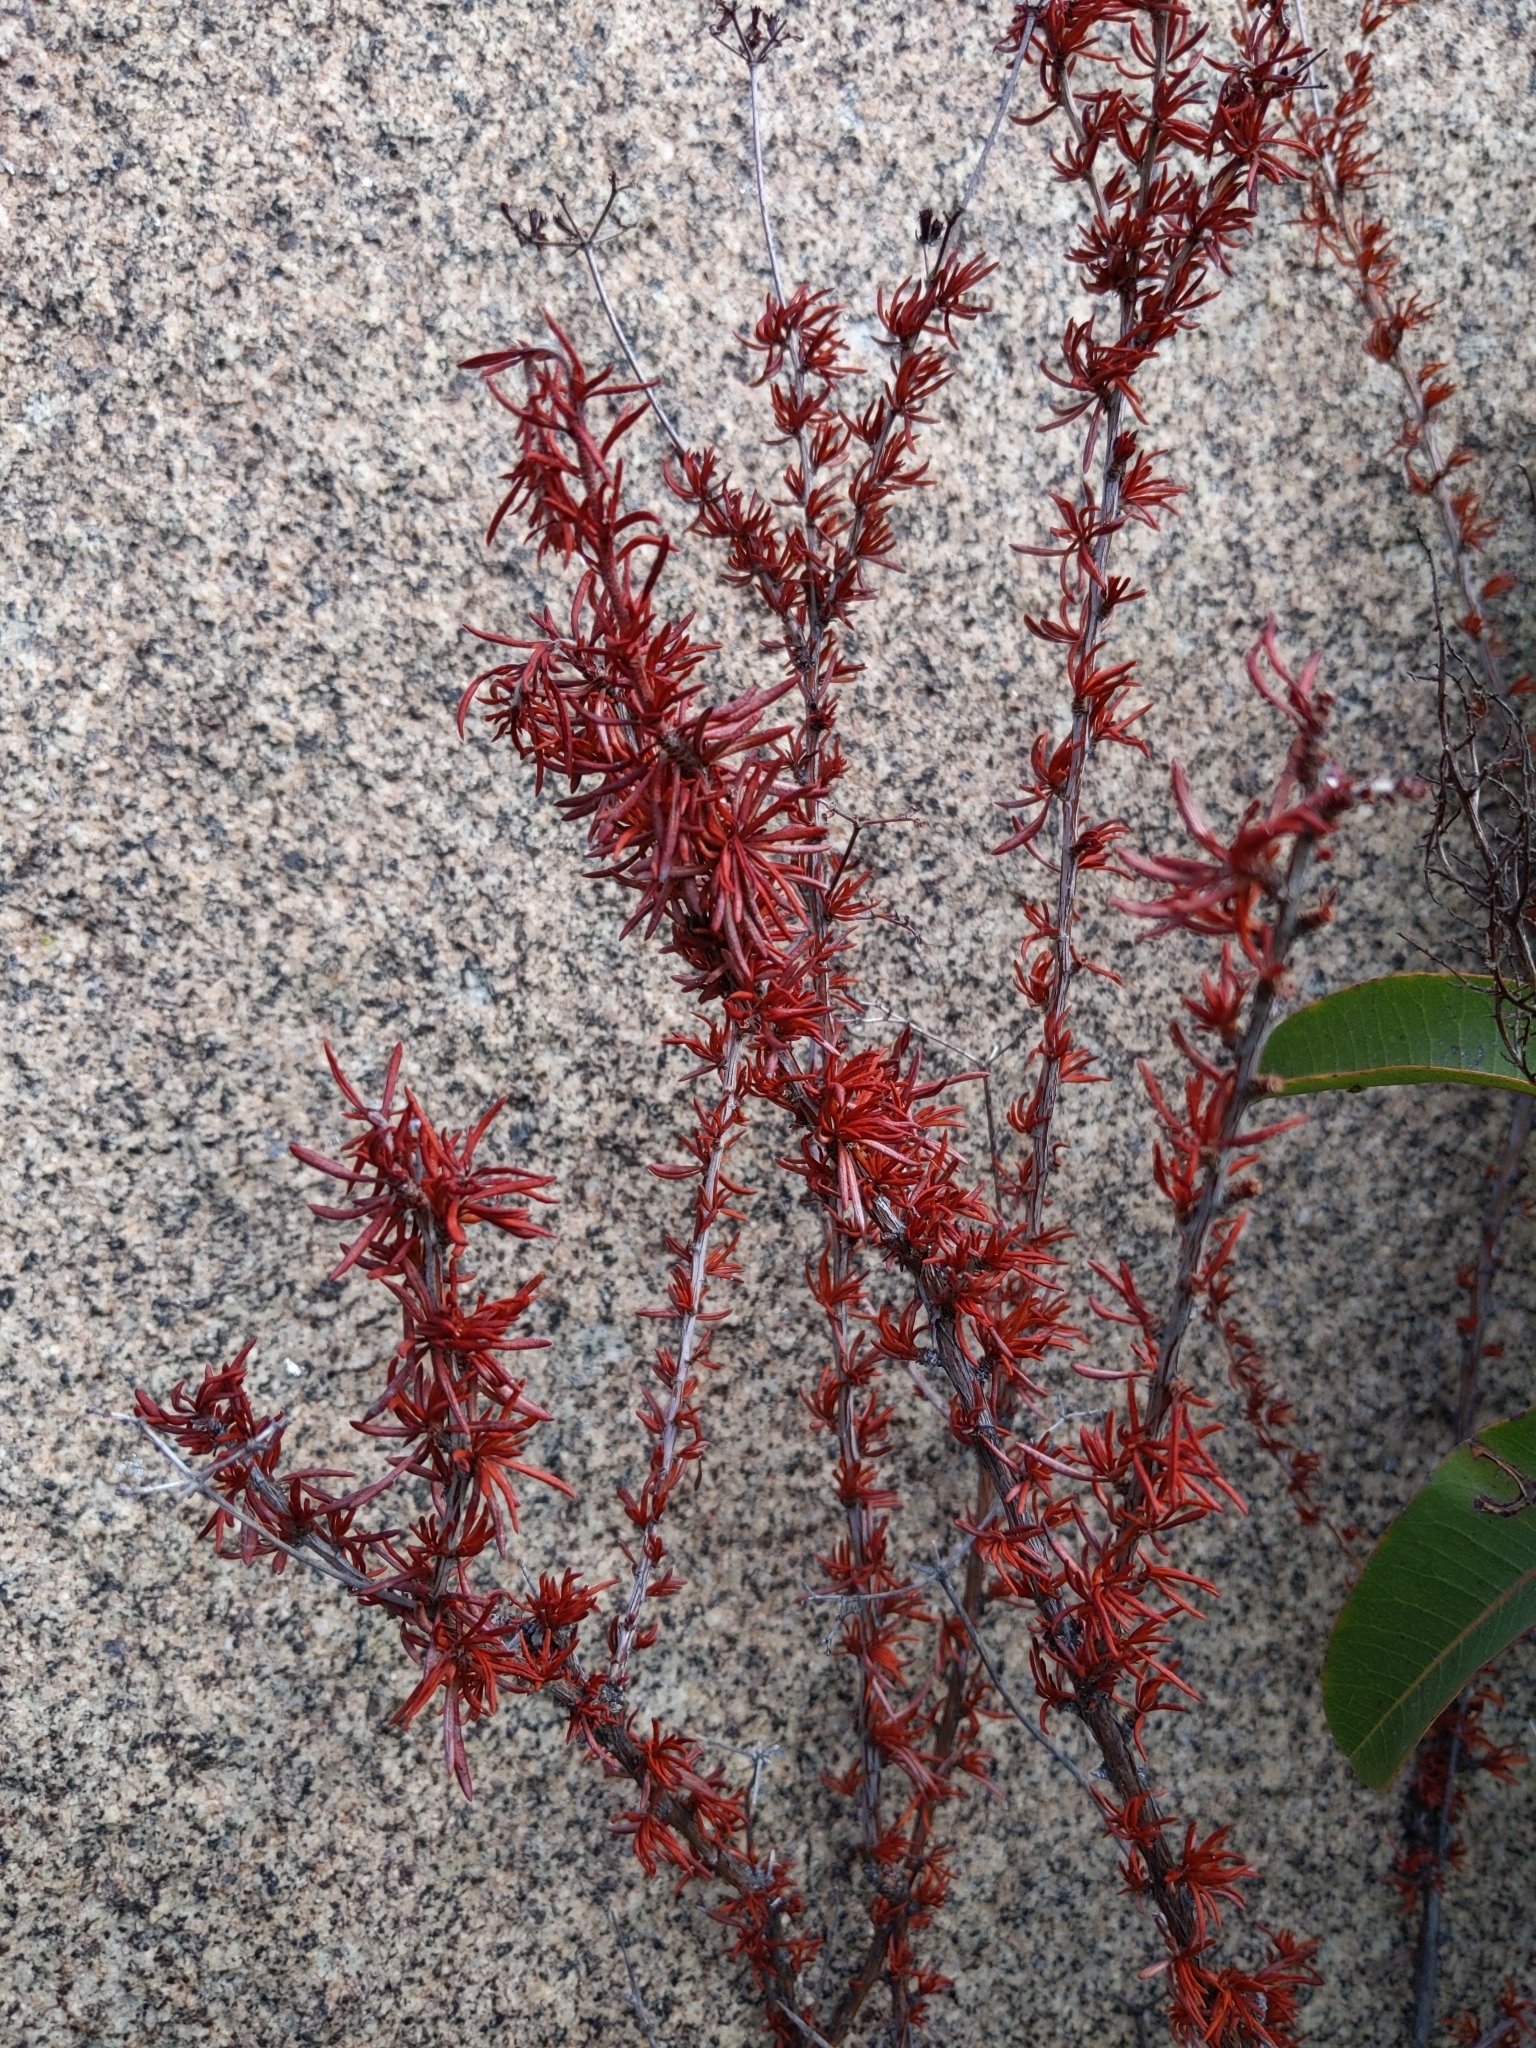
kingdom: Plantae
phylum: Tracheophyta
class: Magnoliopsida
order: Caryophyllales
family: Polygonaceae
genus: Eriogonum
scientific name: Eriogonum fasciculatum
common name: California wild buckwheat
